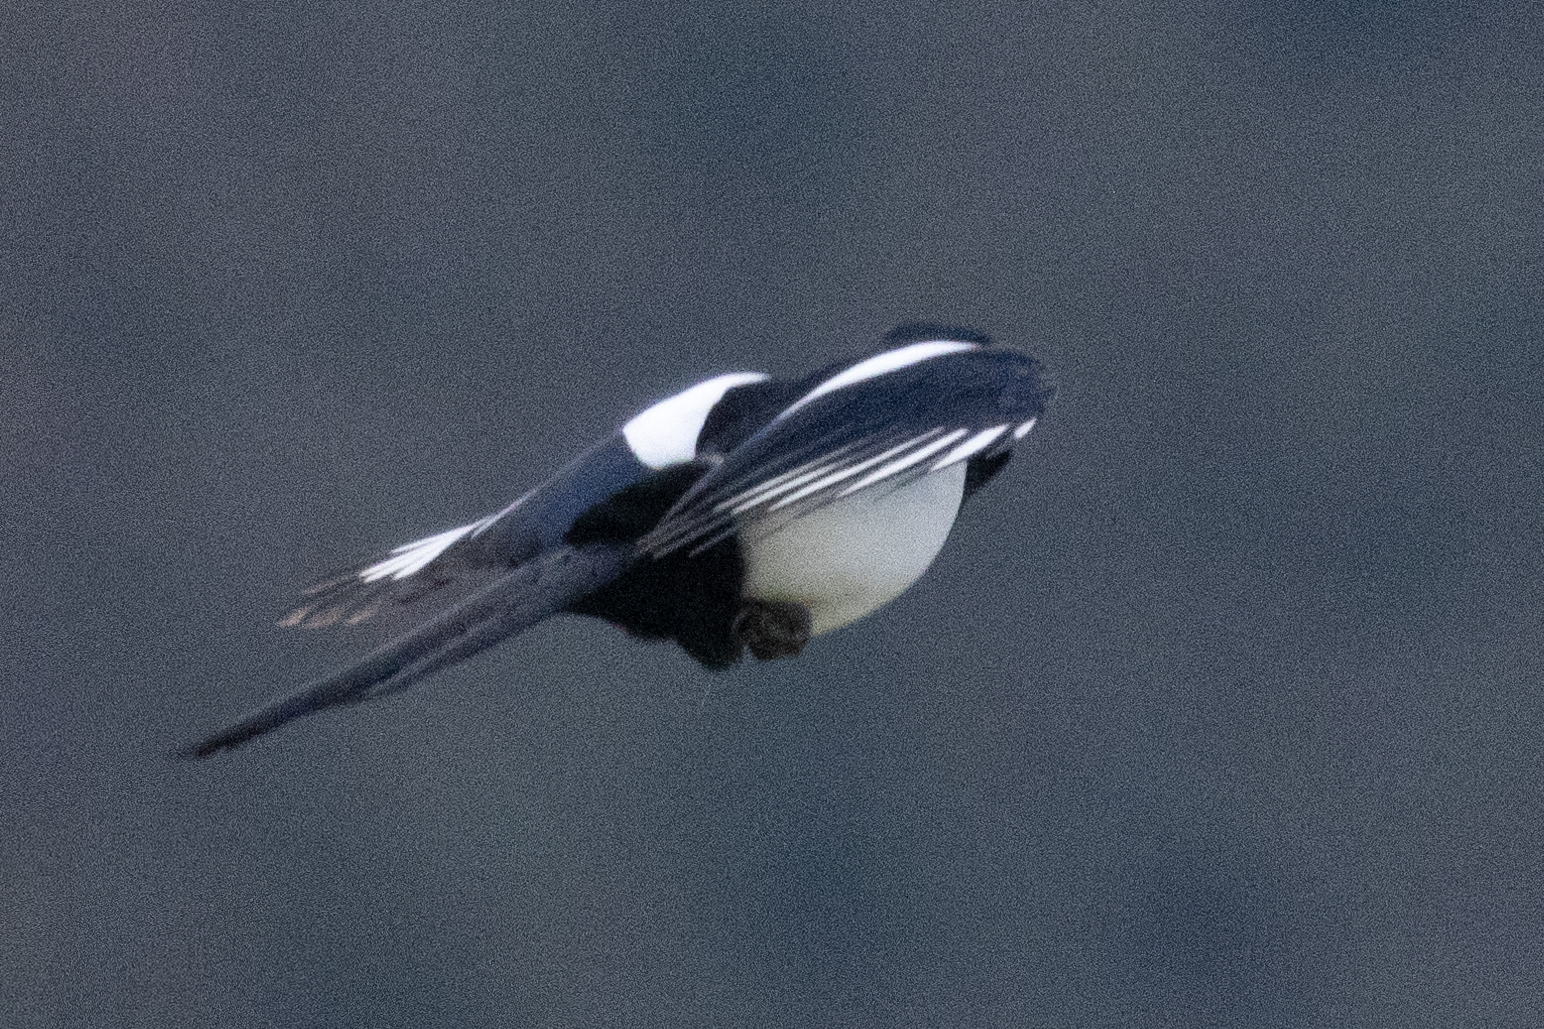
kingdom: Animalia
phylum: Chordata
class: Aves
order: Passeriformes
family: Corvidae
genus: Pica
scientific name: Pica pica
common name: Eurasian magpie
